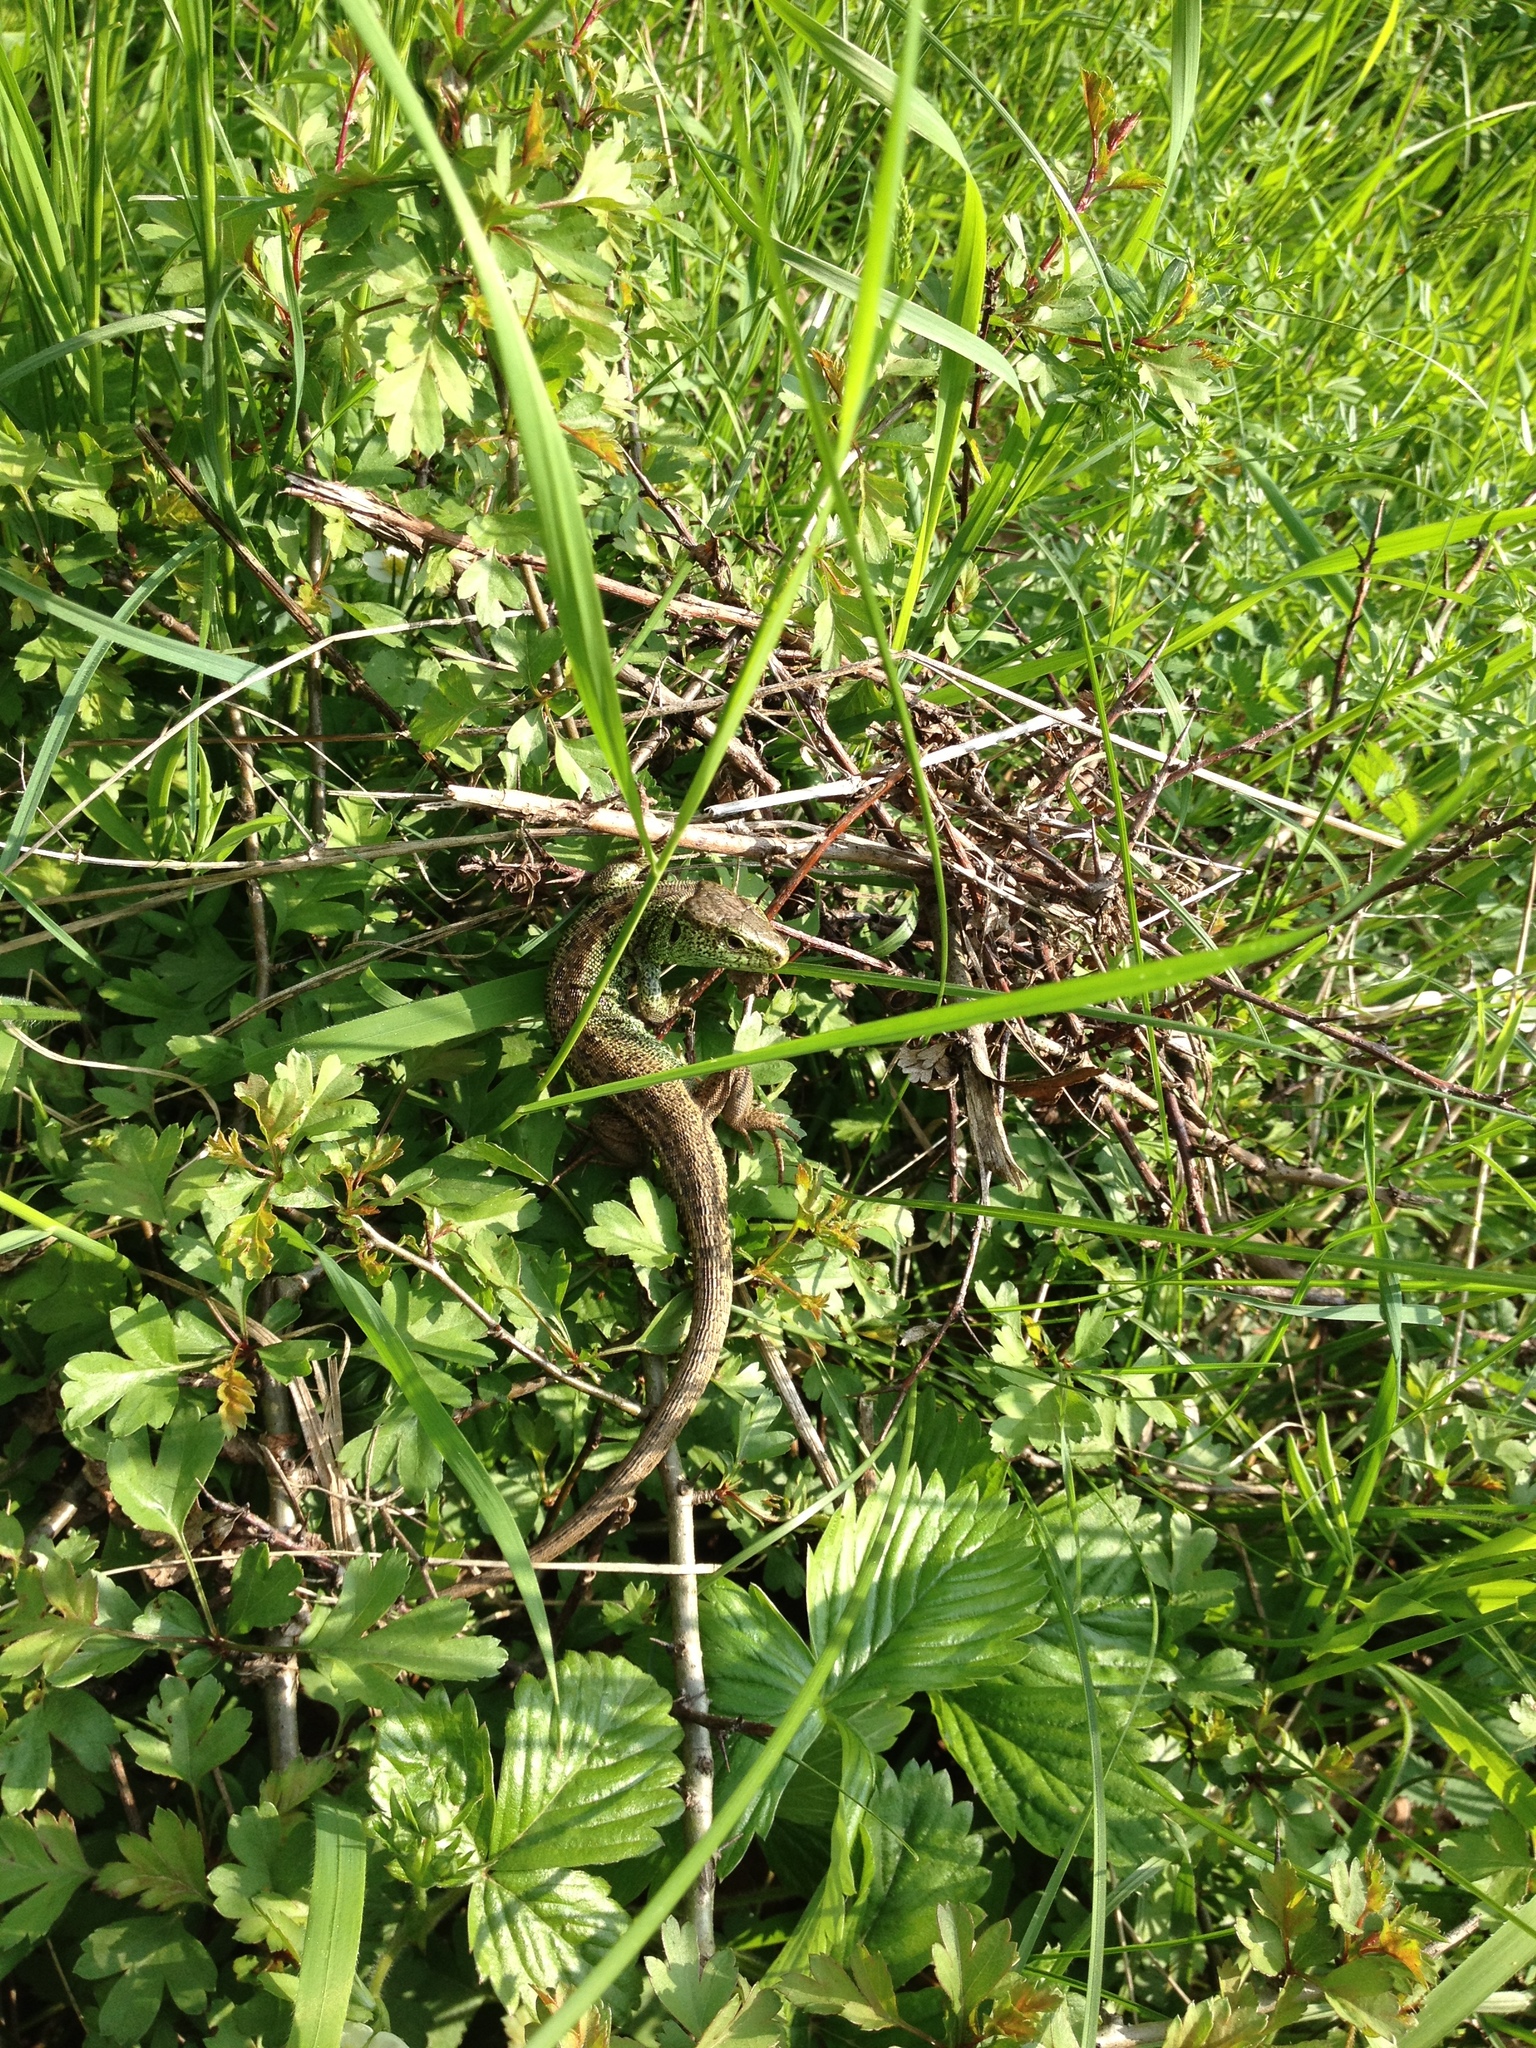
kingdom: Animalia
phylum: Chordata
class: Squamata
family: Lacertidae
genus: Lacerta
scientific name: Lacerta agilis
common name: Sand lizard
